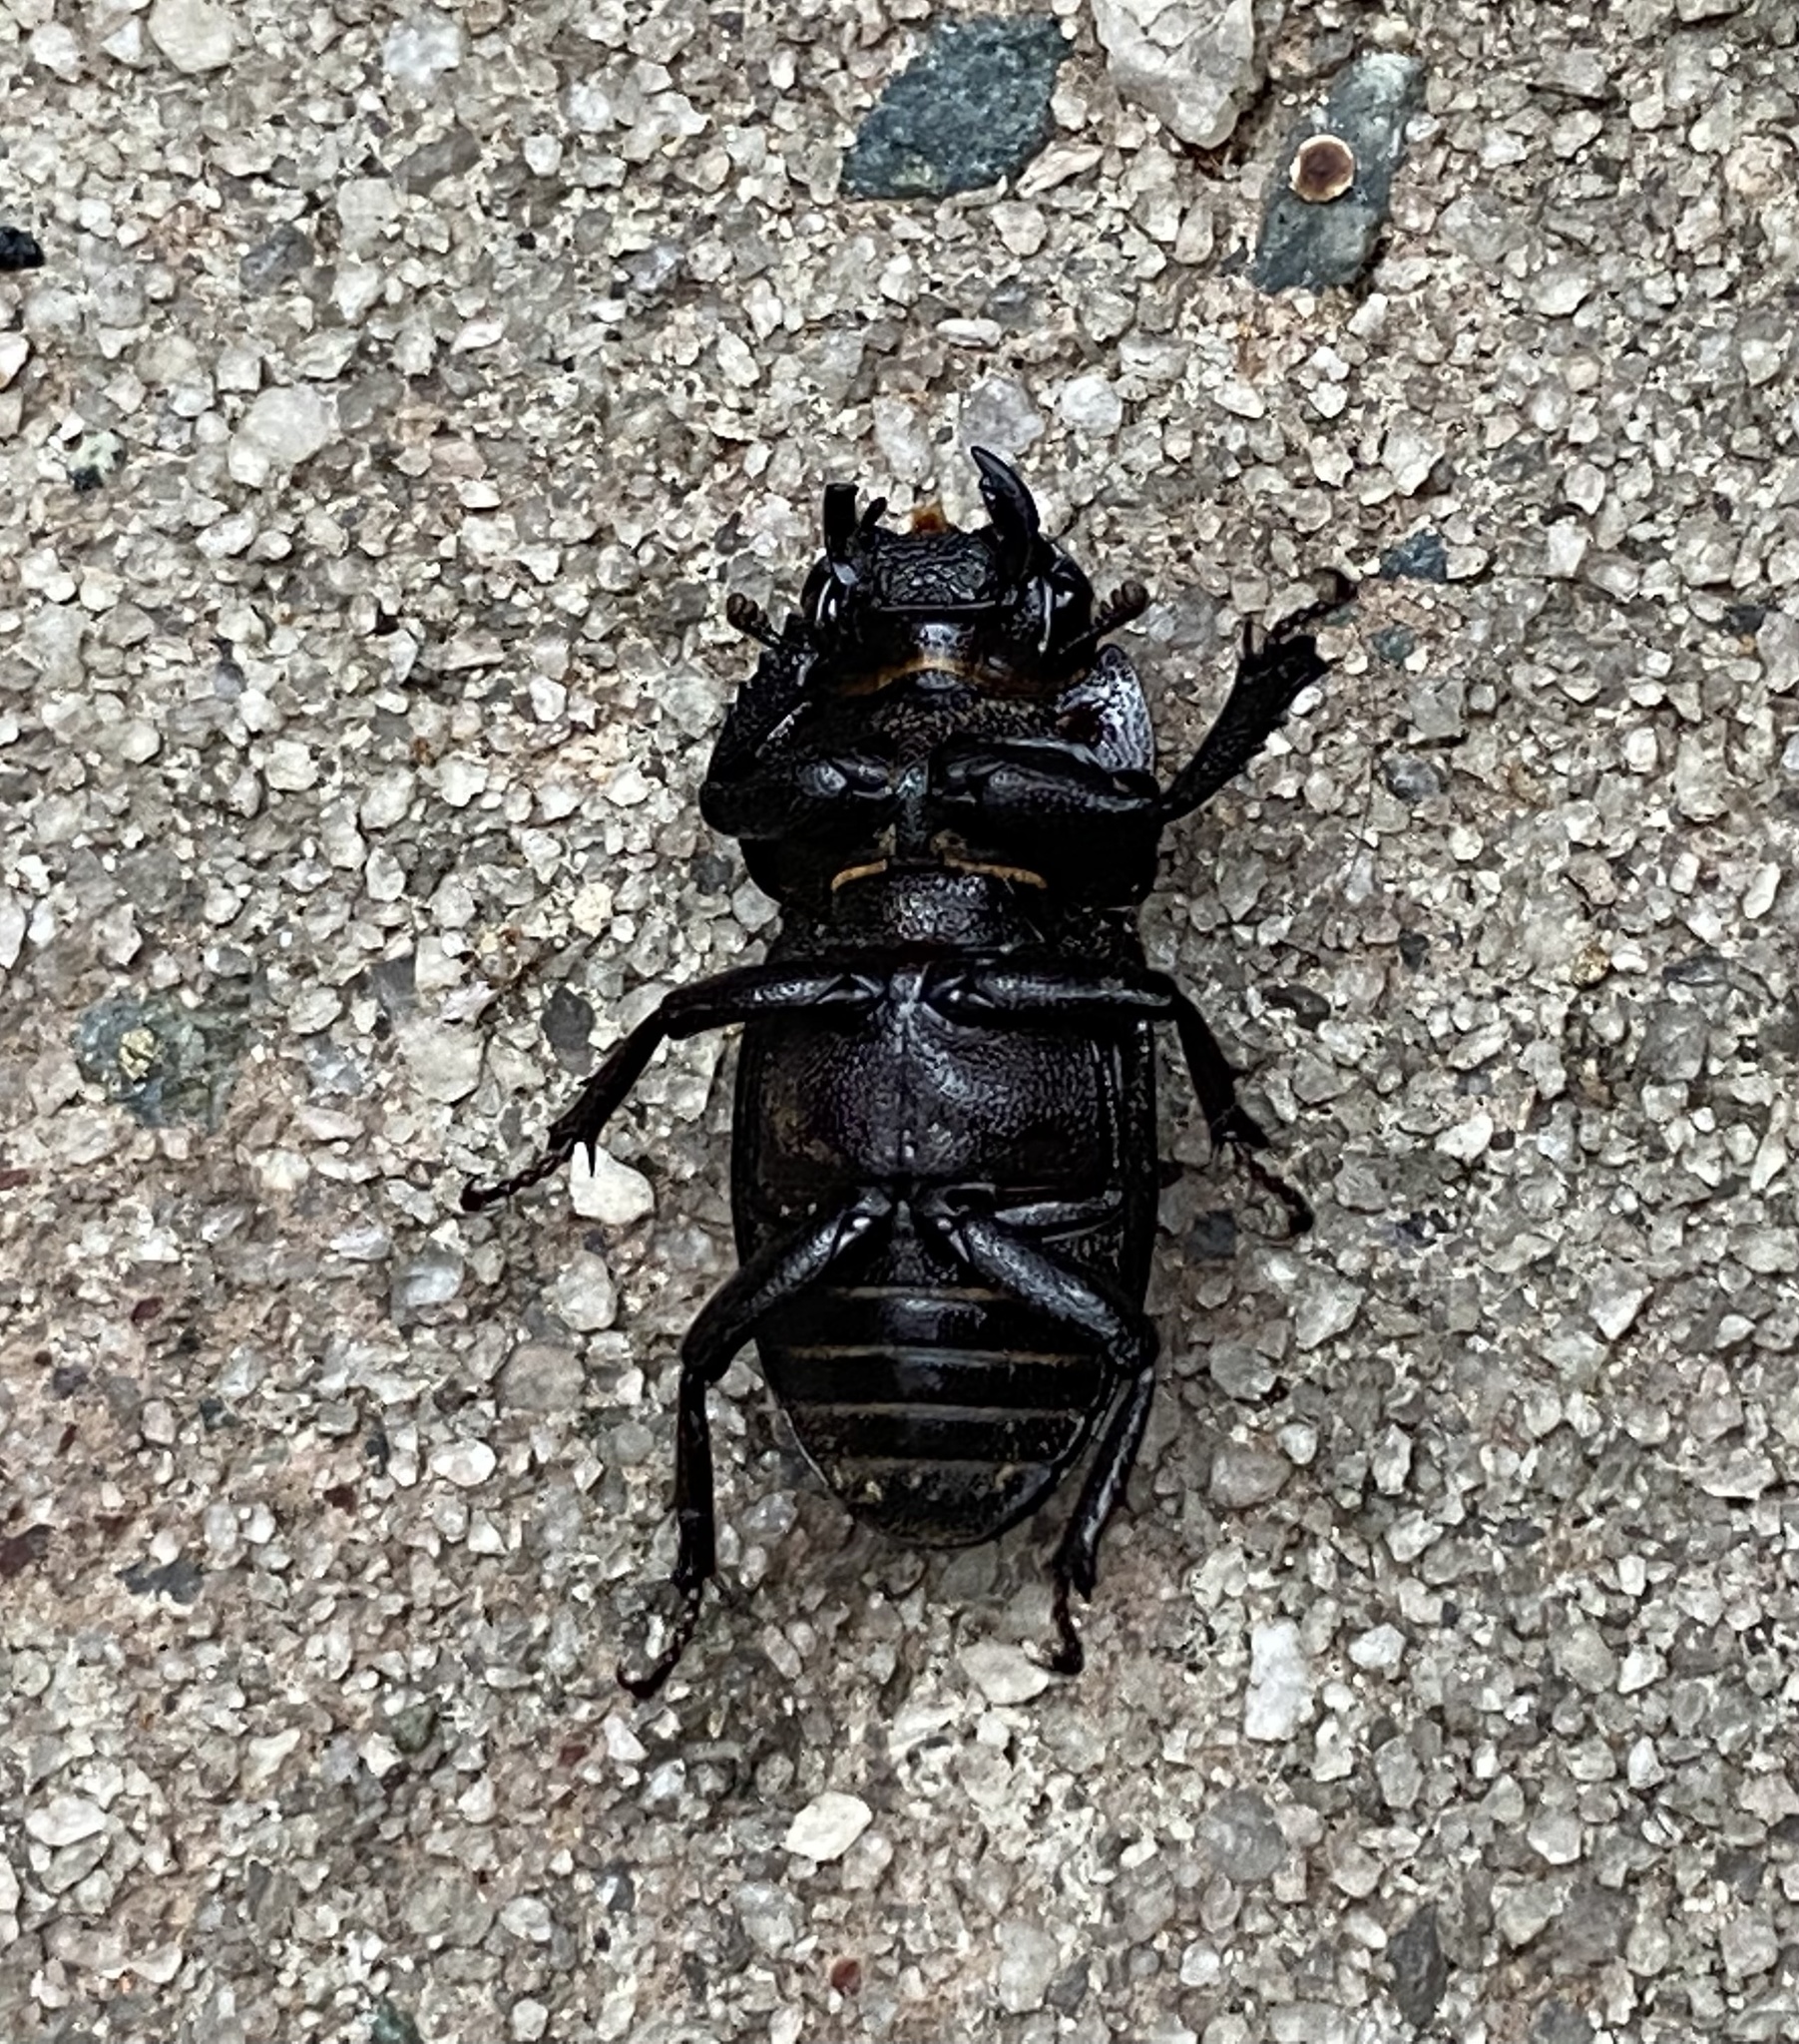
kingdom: Animalia
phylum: Arthropoda
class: Insecta
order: Coleoptera
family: Lucanidae
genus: Dorcus
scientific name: Dorcus brevis
